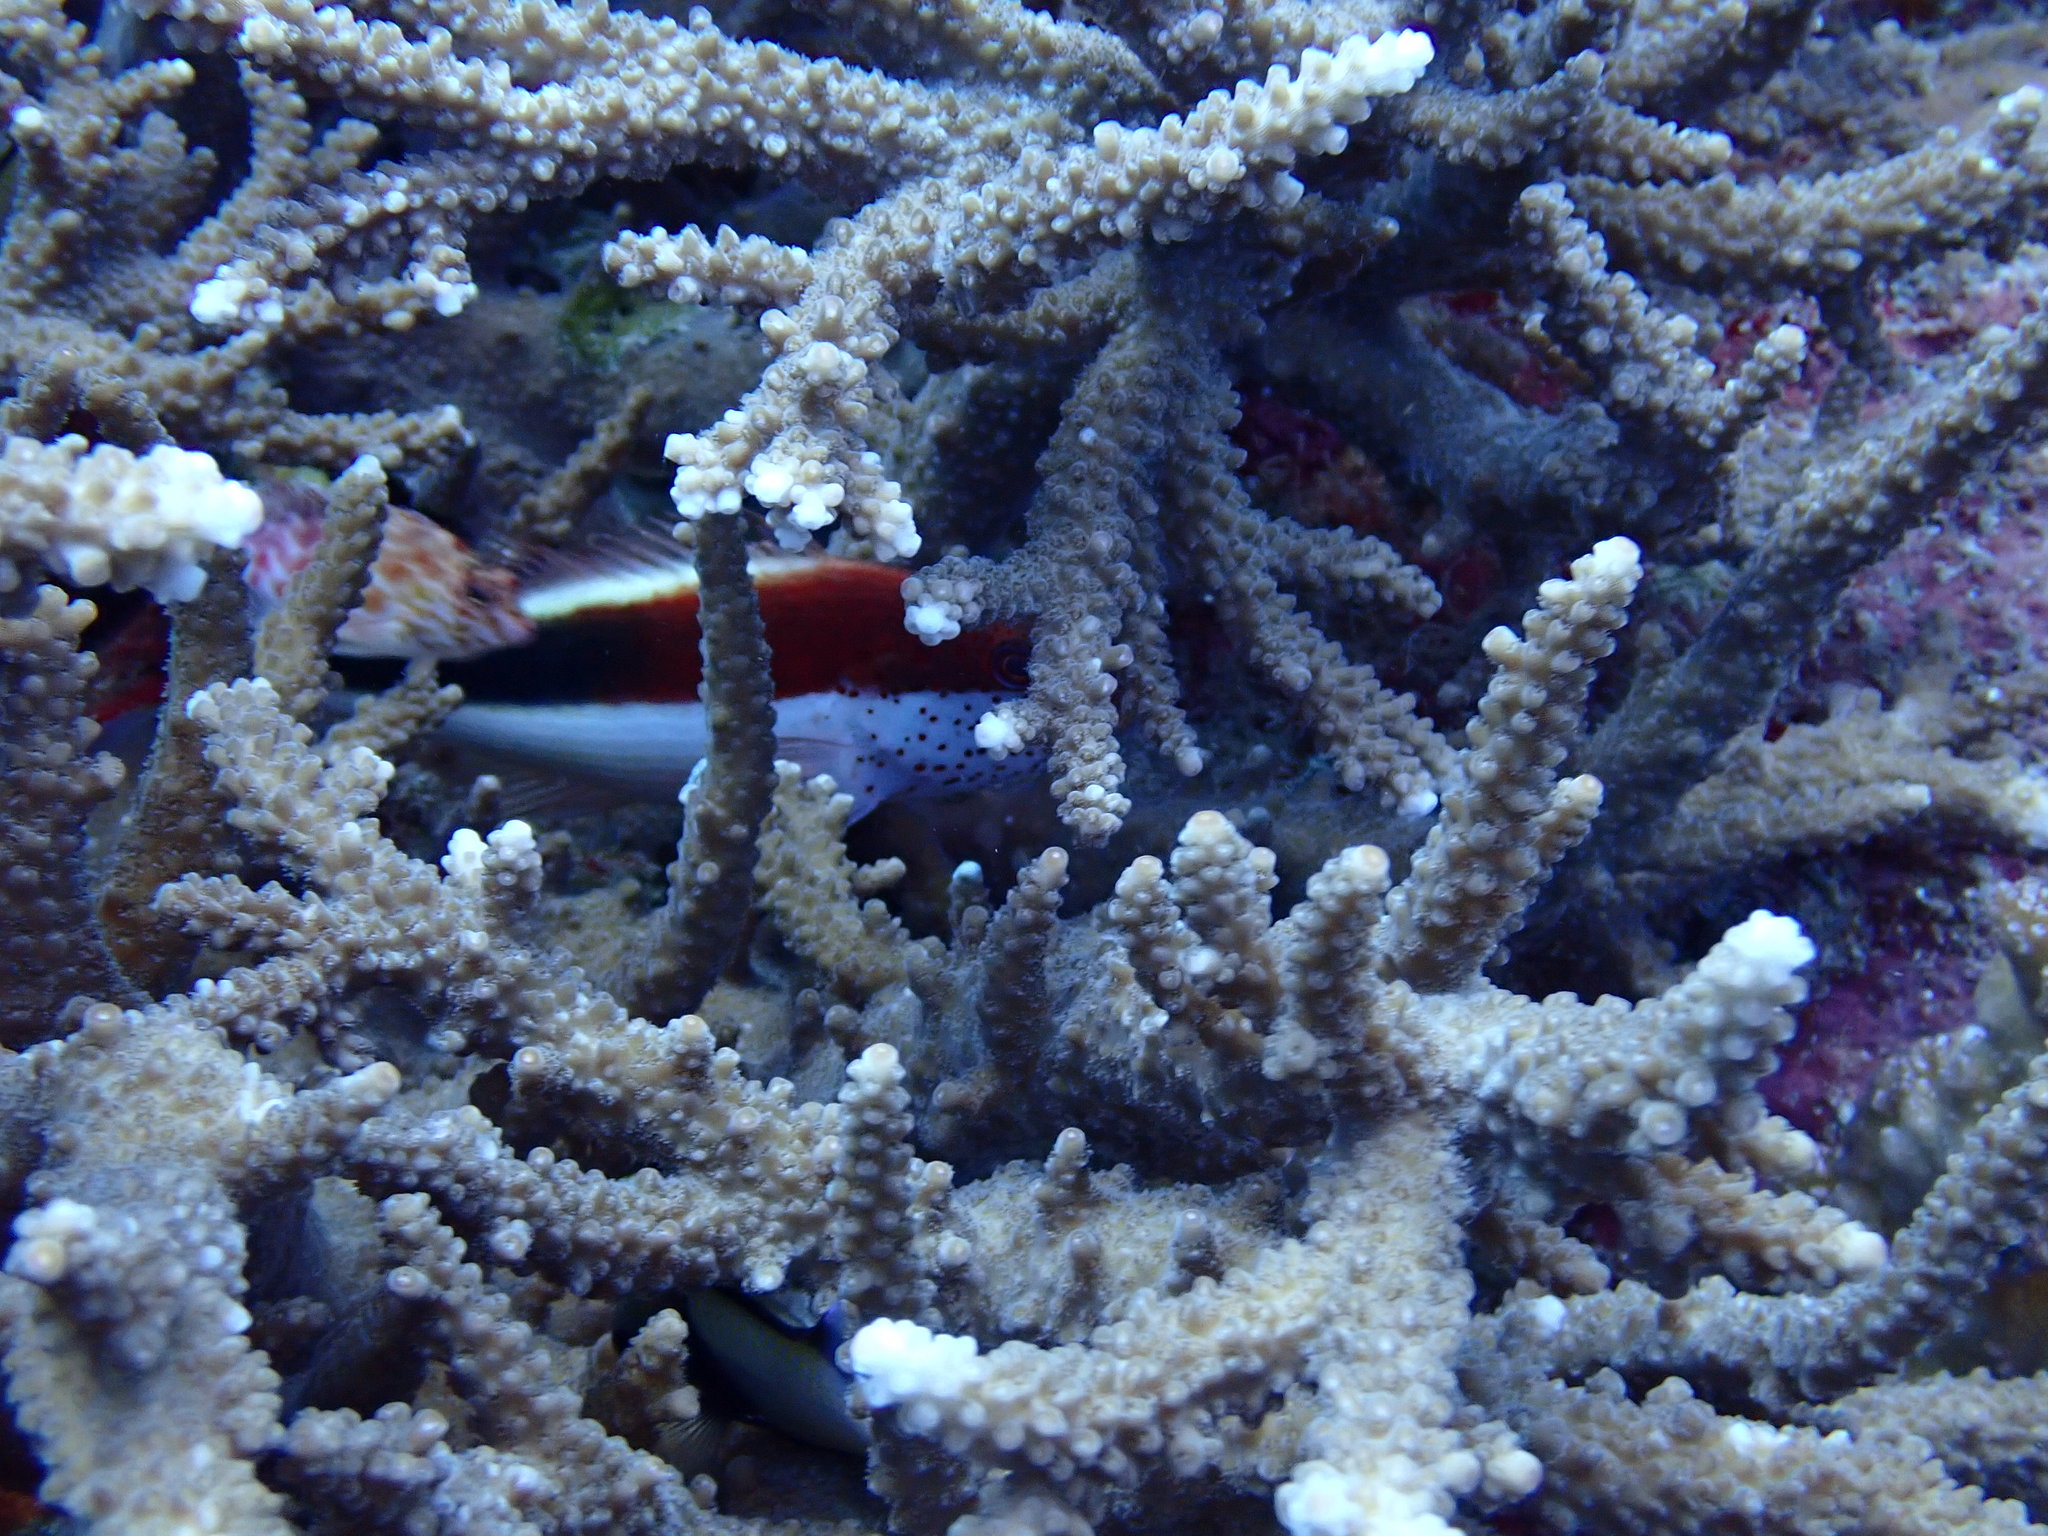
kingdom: Animalia
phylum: Chordata
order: Perciformes
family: Cirrhitidae
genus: Paracirrhites
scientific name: Paracirrhites forsteri
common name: Freckled hawkfish
